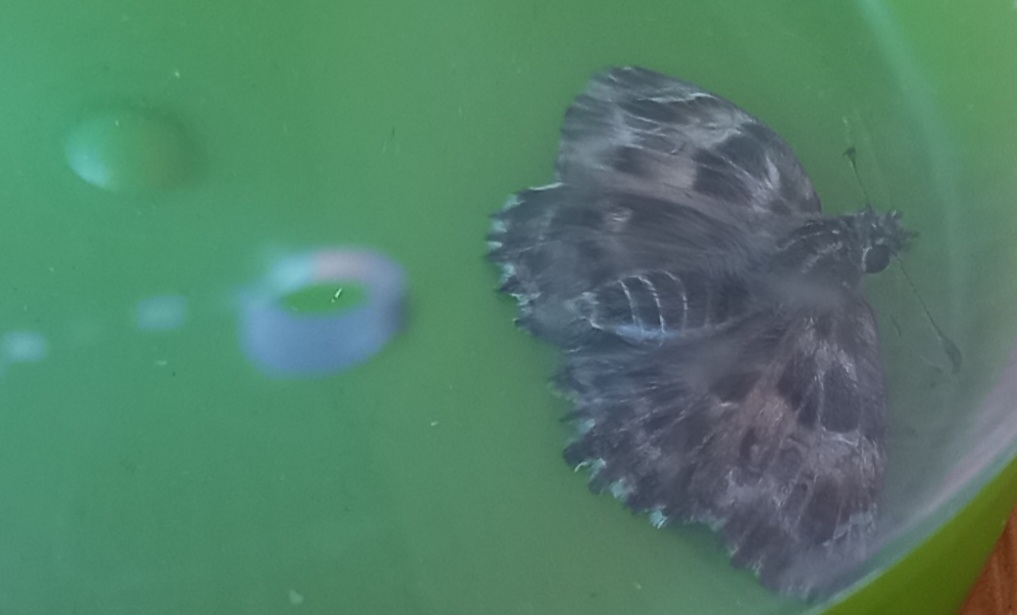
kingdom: Animalia
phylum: Arthropoda
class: Insecta
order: Lepidoptera
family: Hesperiidae
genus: Carcharodus
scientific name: Carcharodus alceae
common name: Mallow skipper
